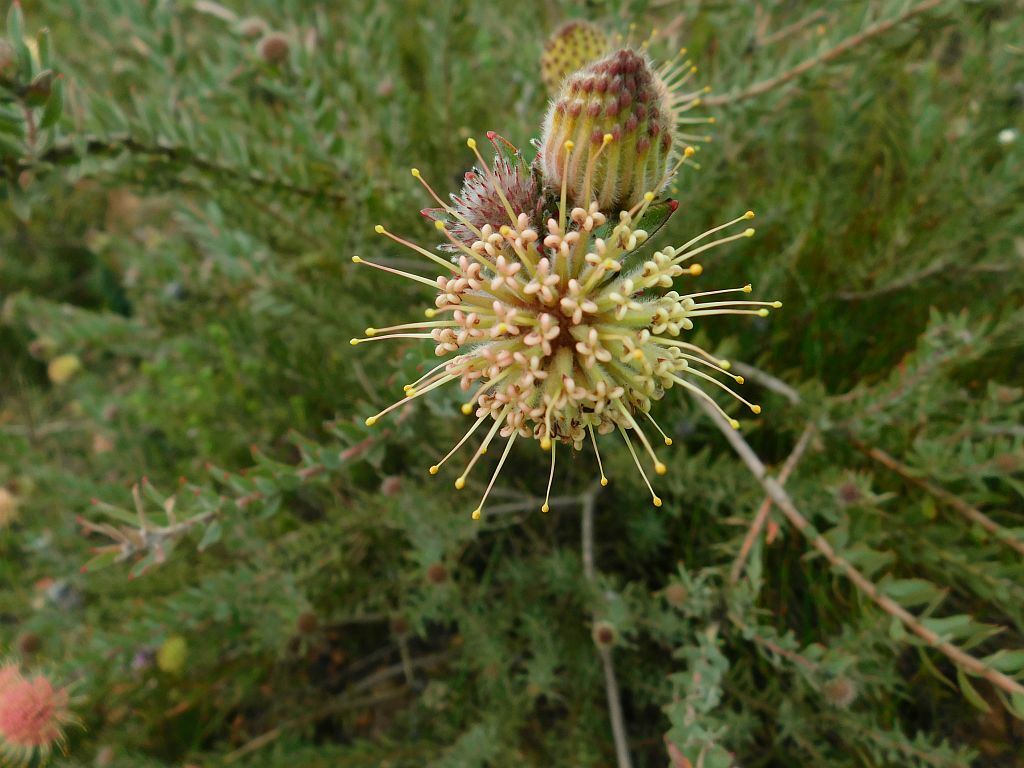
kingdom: Plantae
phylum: Tracheophyta
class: Magnoliopsida
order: Proteales
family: Proteaceae
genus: Leucospermum
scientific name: Leucospermum calligerum
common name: Arid pincushion
